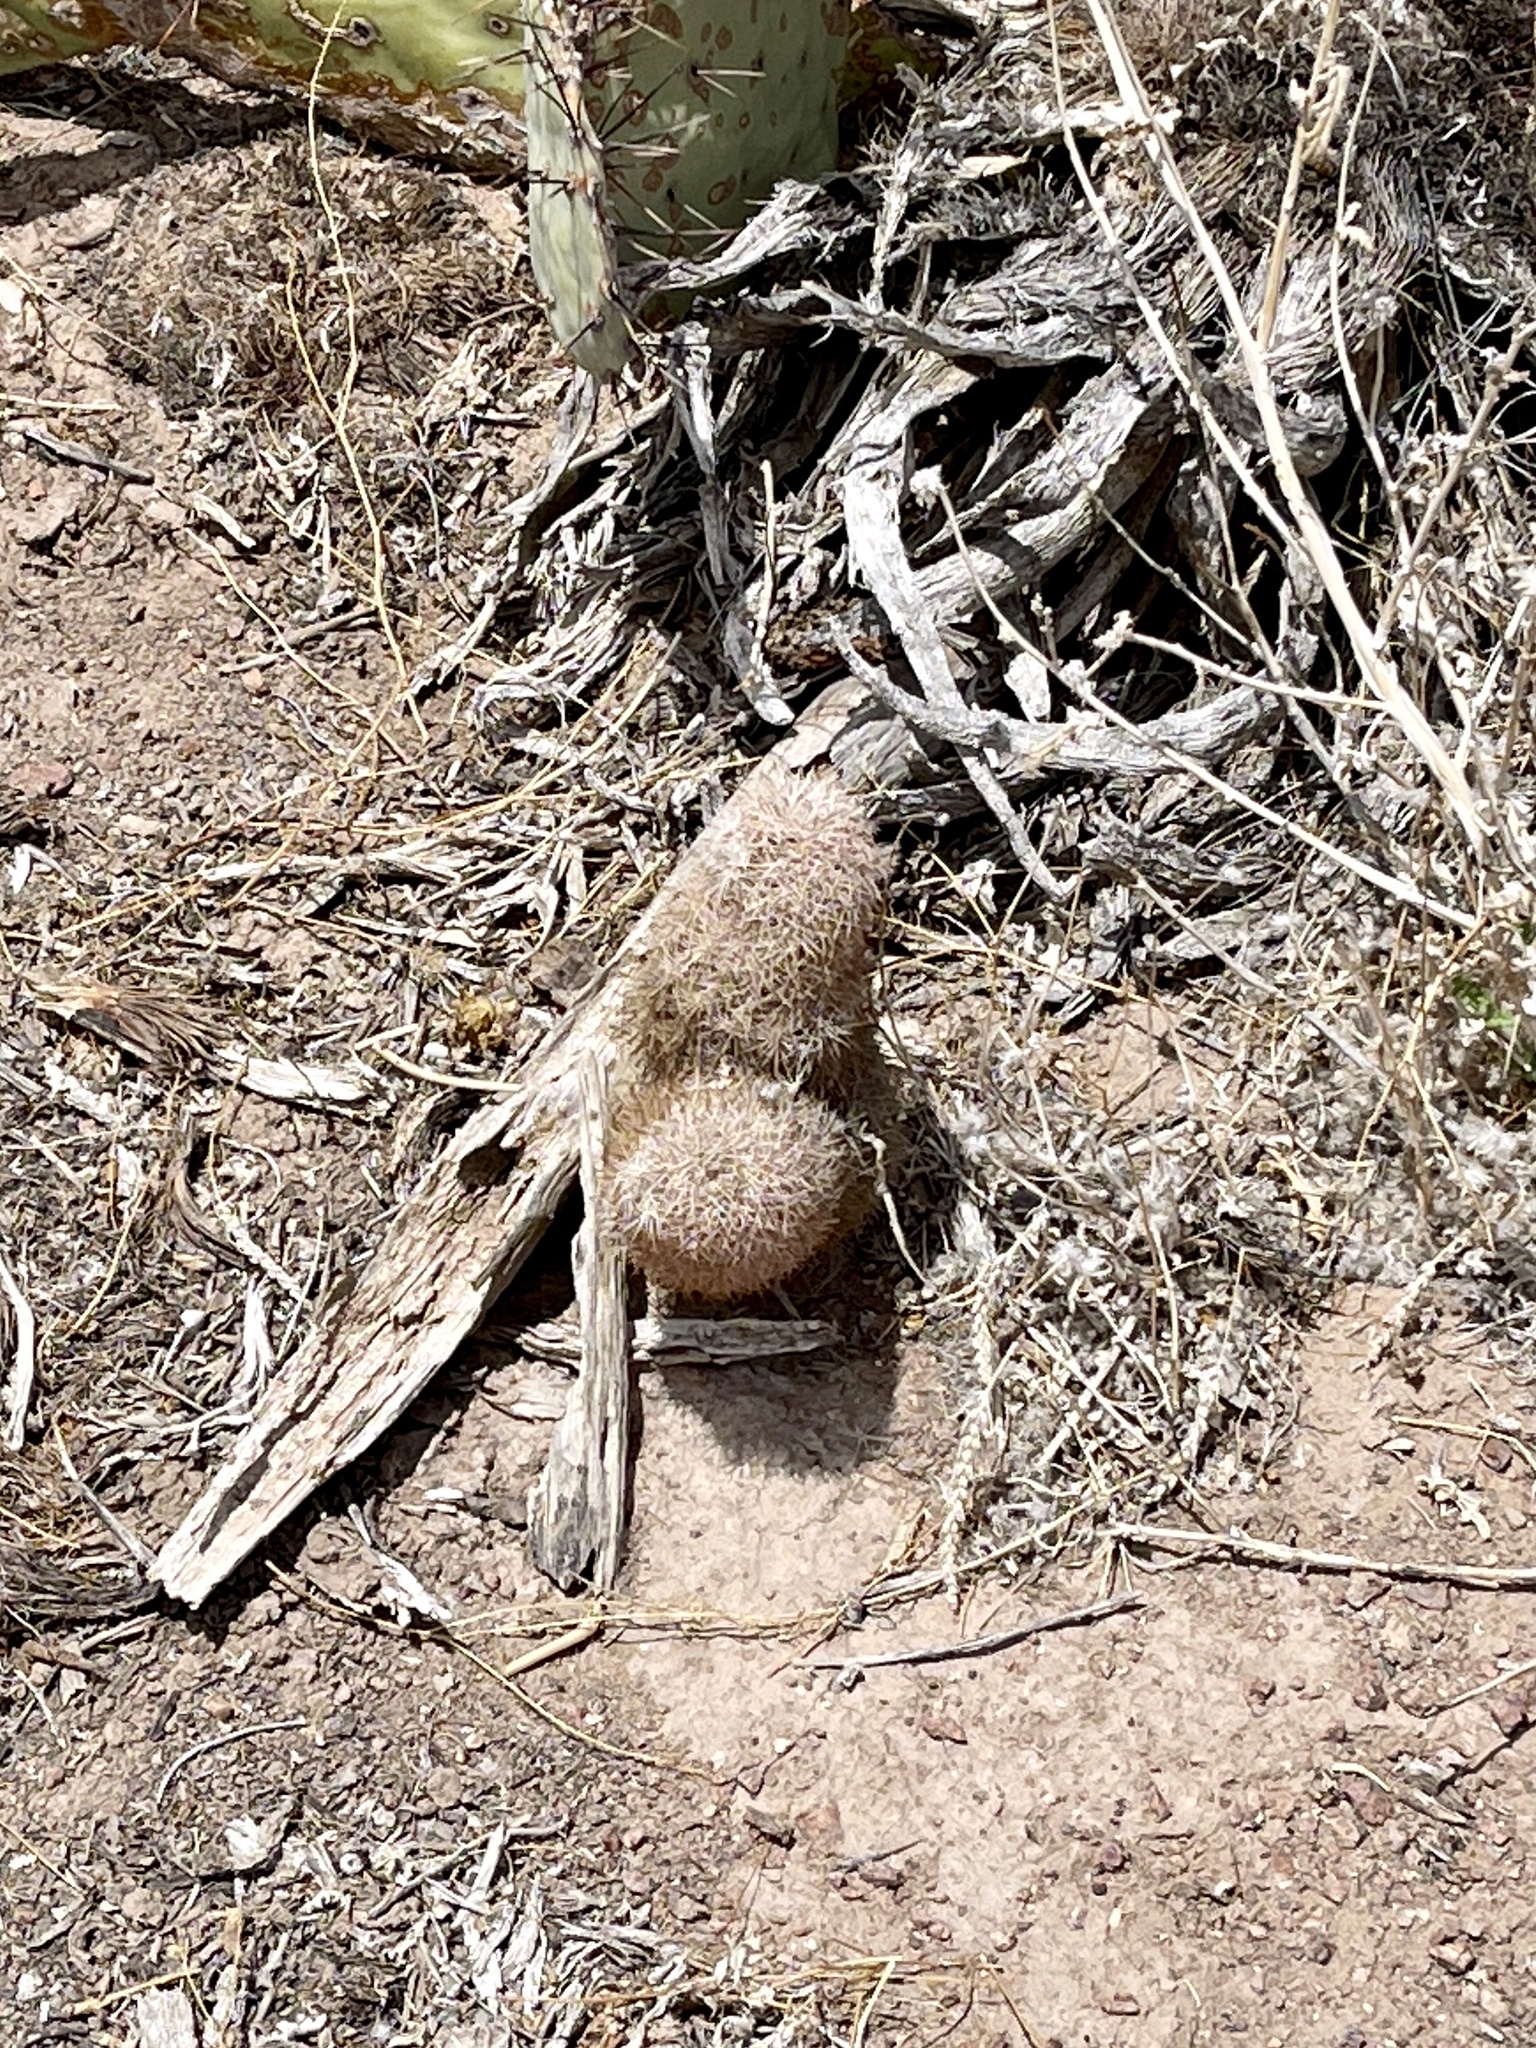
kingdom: Plantae
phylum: Tracheophyta
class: Magnoliopsida
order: Caryophyllales
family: Cactaceae
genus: Echinocereus
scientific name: Echinocereus dasyacanthus
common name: Spiny hedgehog cactus
